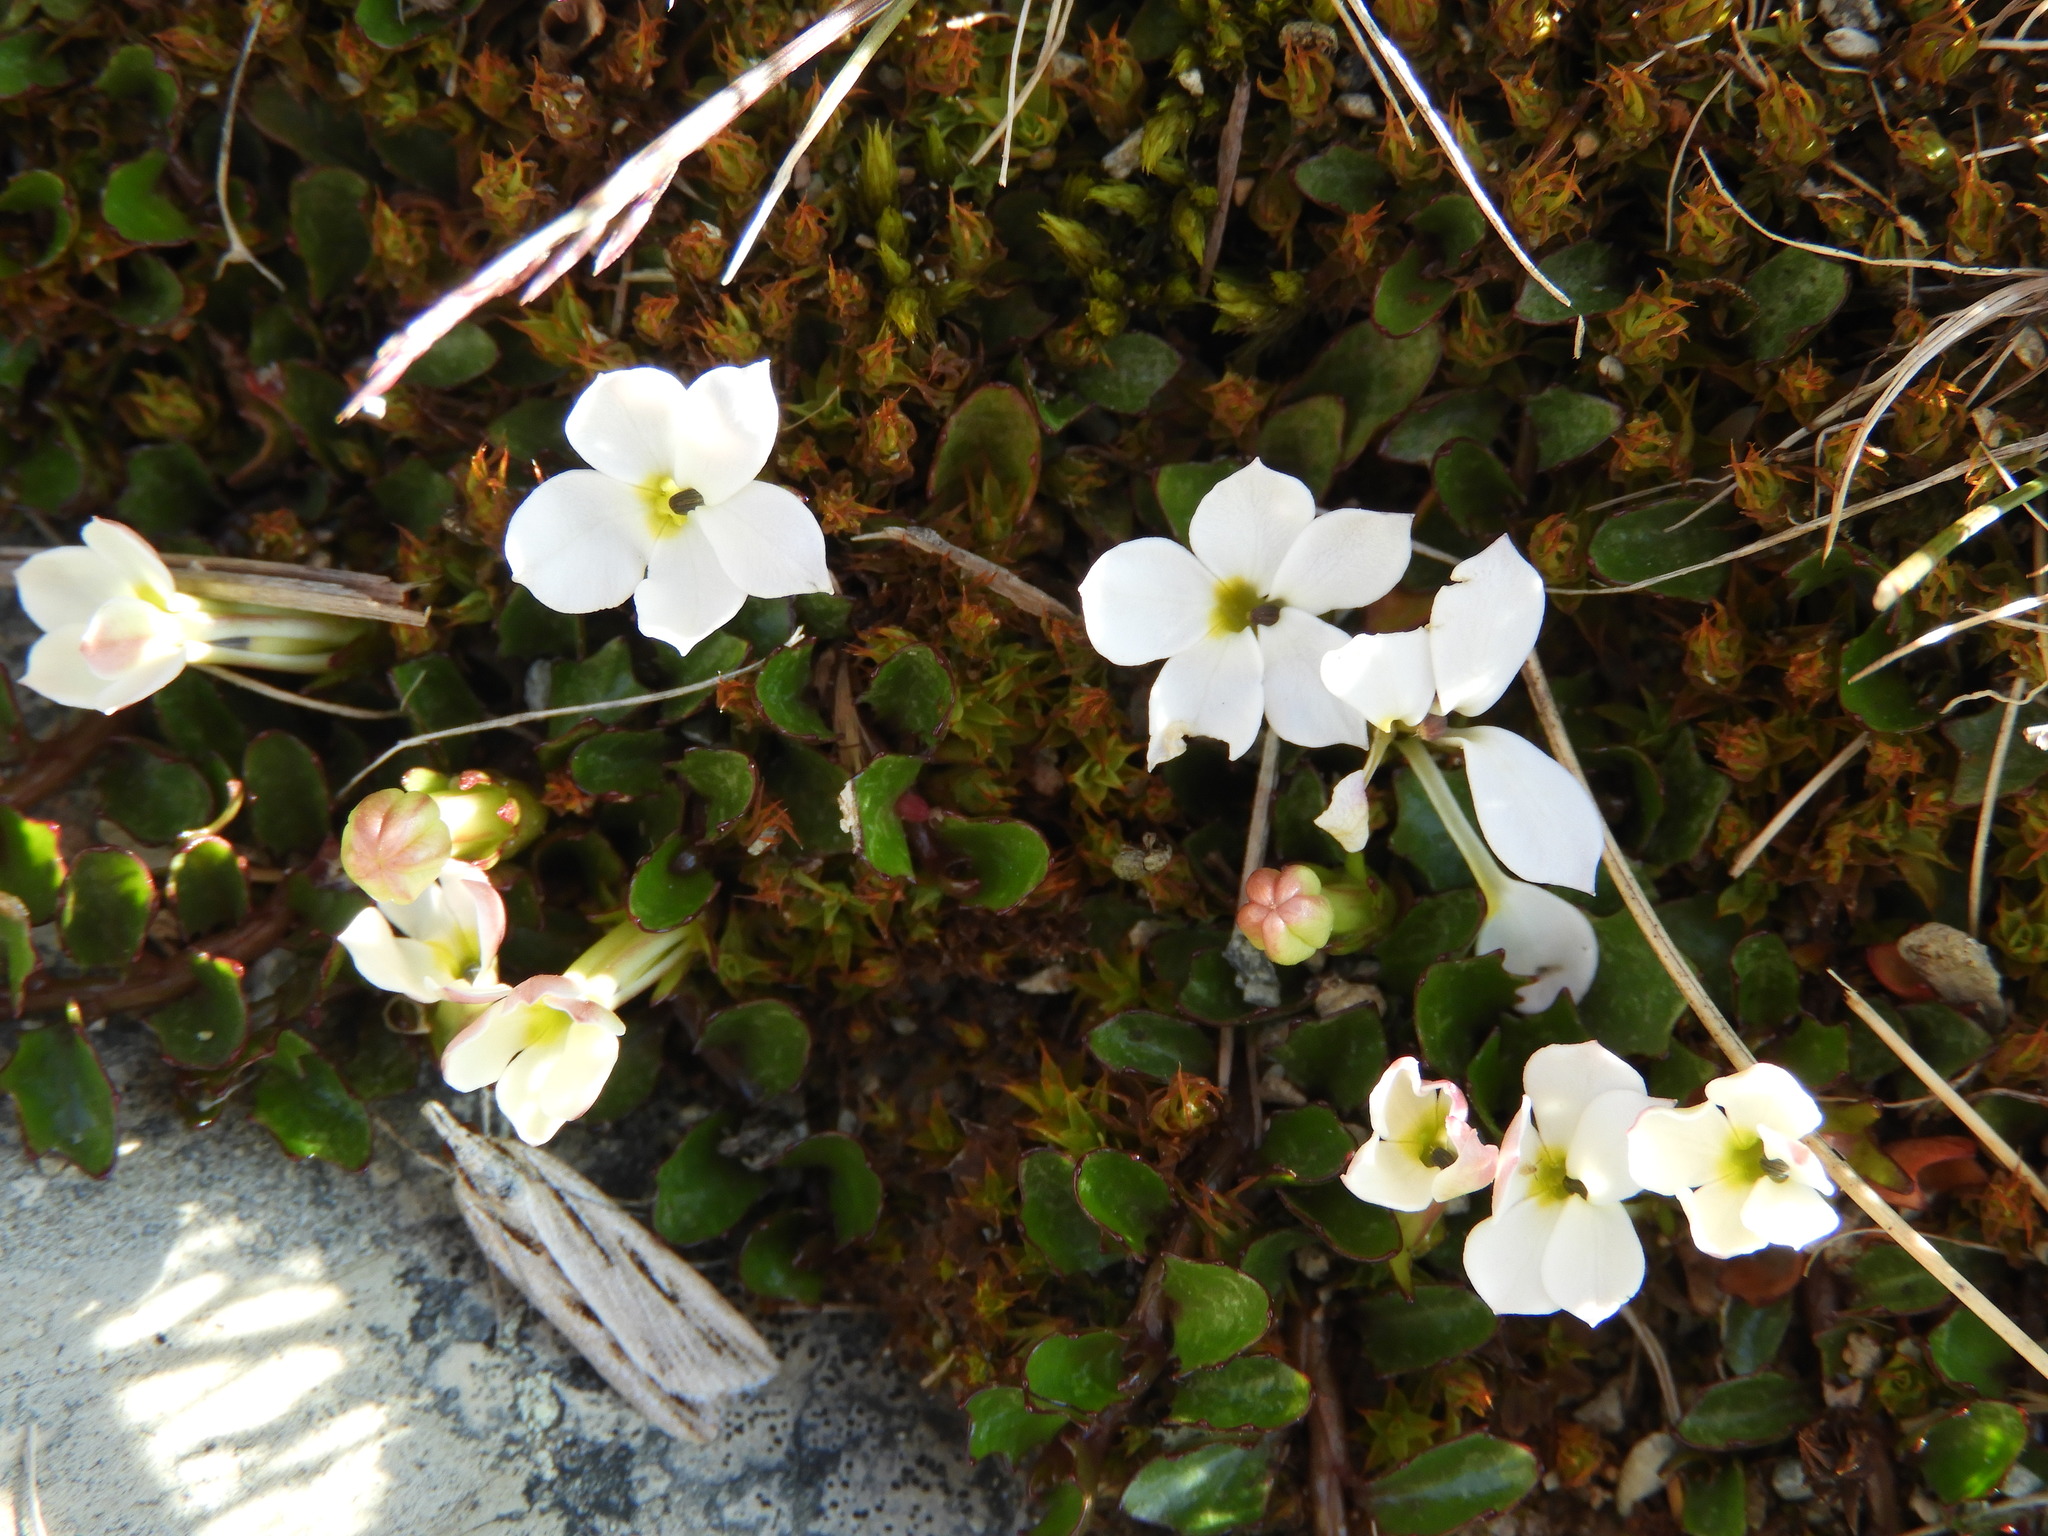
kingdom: Plantae
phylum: Tracheophyta
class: Magnoliopsida
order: Asterales
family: Campanulaceae
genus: Lobelia
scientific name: Lobelia glaberrima
